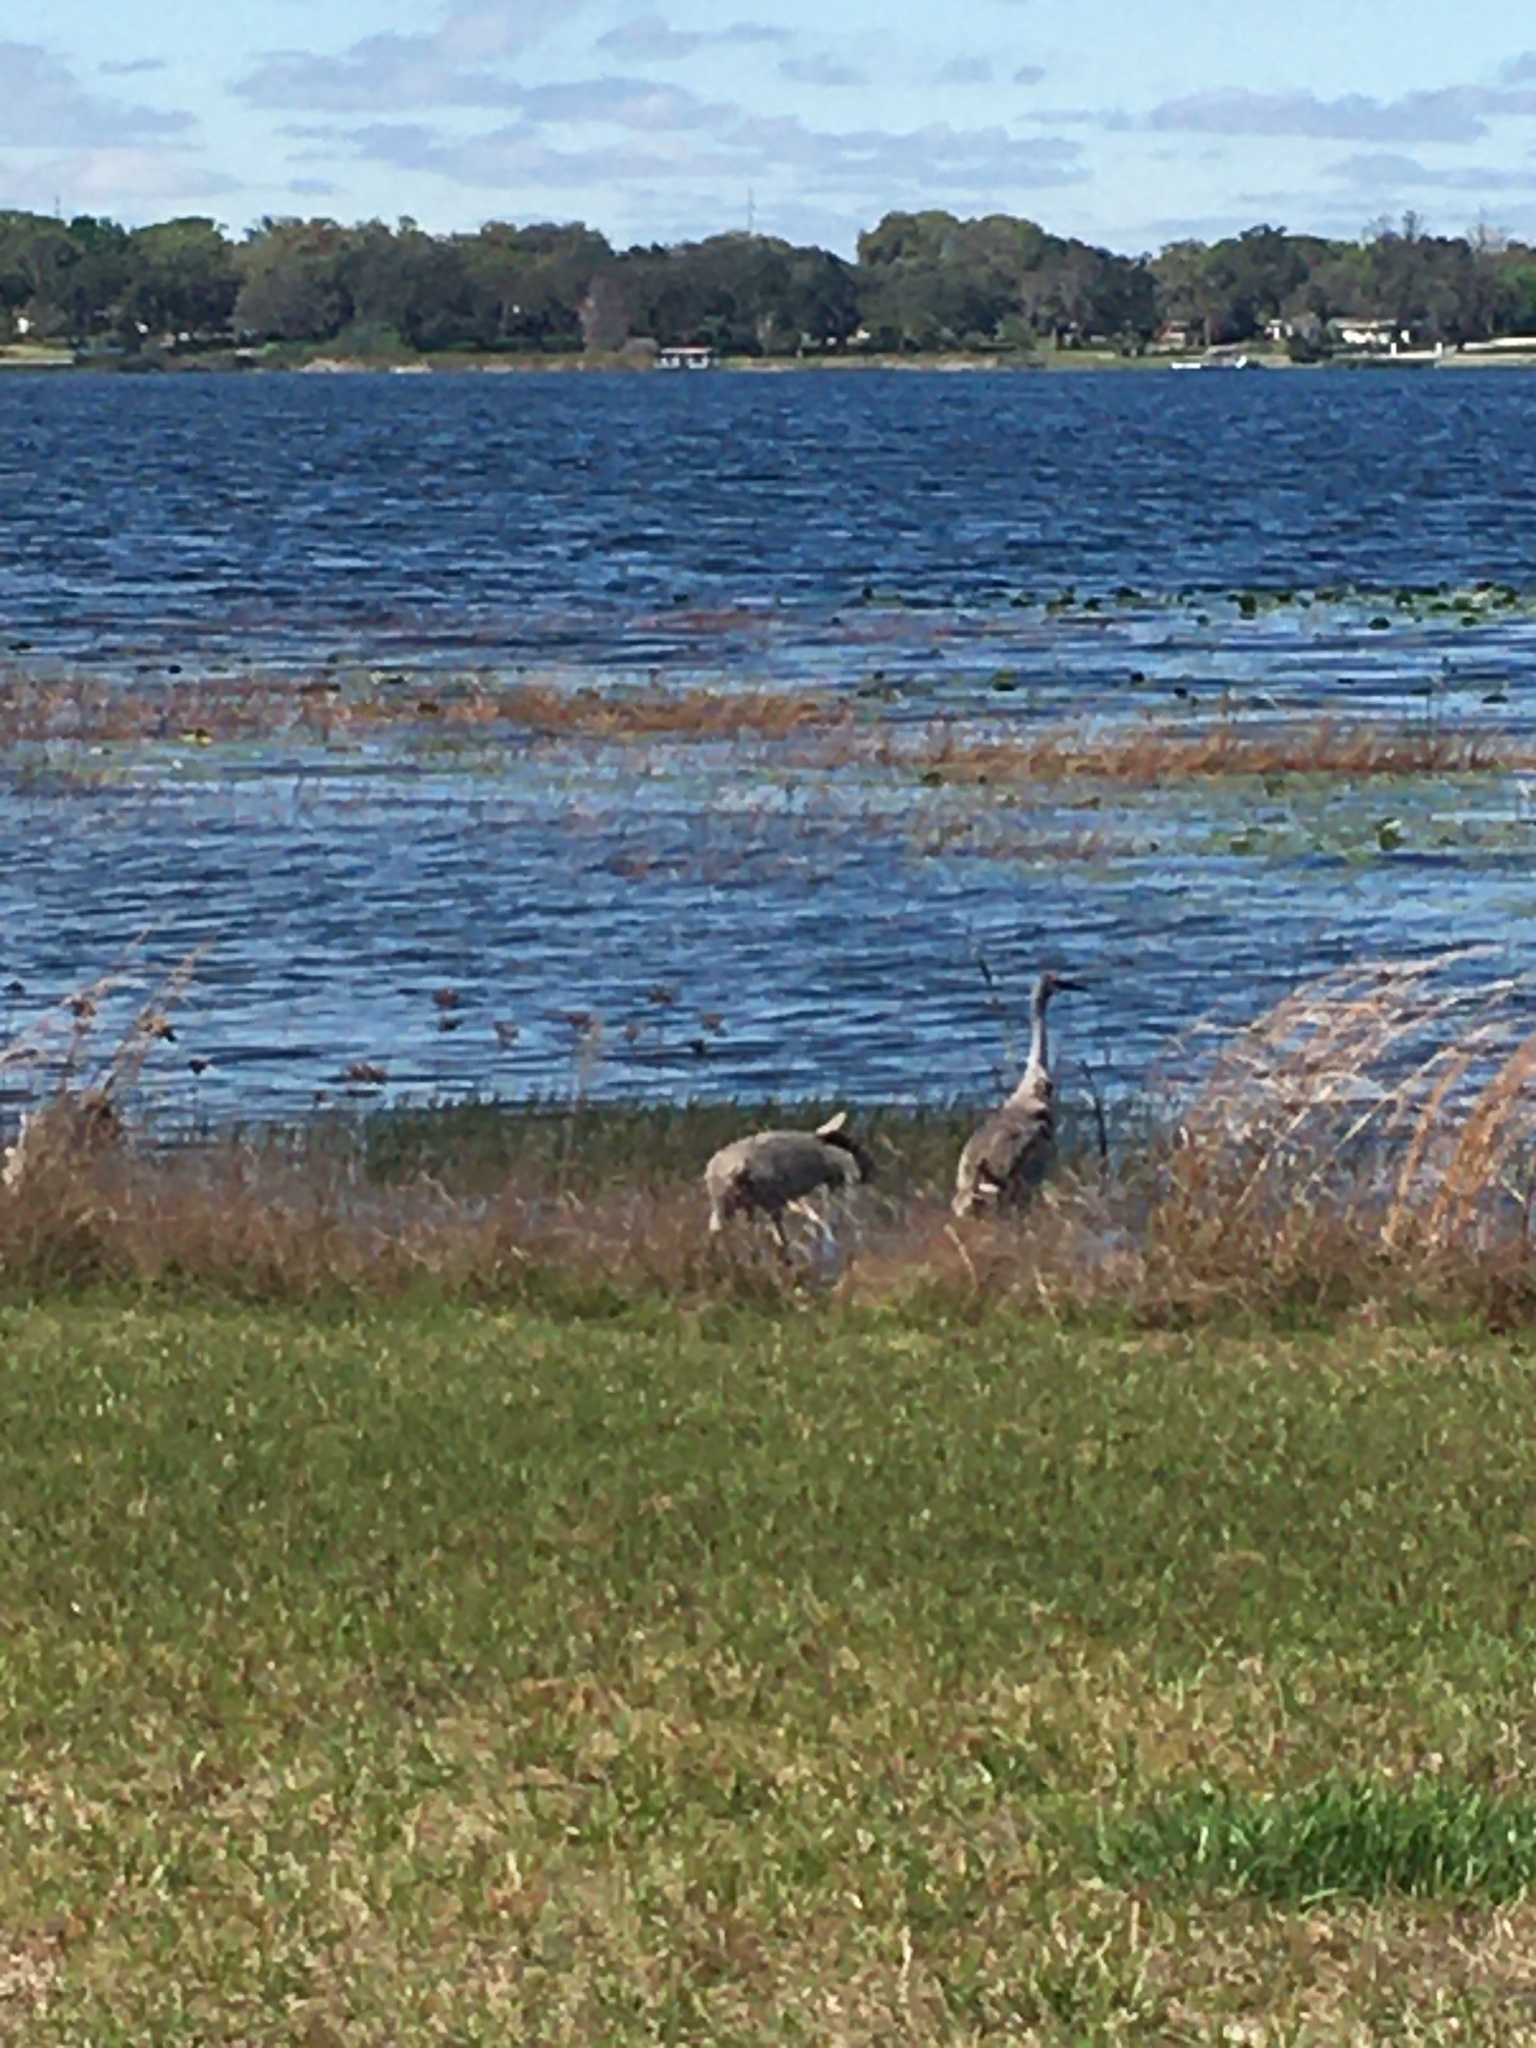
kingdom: Animalia
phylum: Chordata
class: Aves
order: Gruiformes
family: Gruidae
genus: Grus
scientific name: Grus canadensis
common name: Sandhill crane
